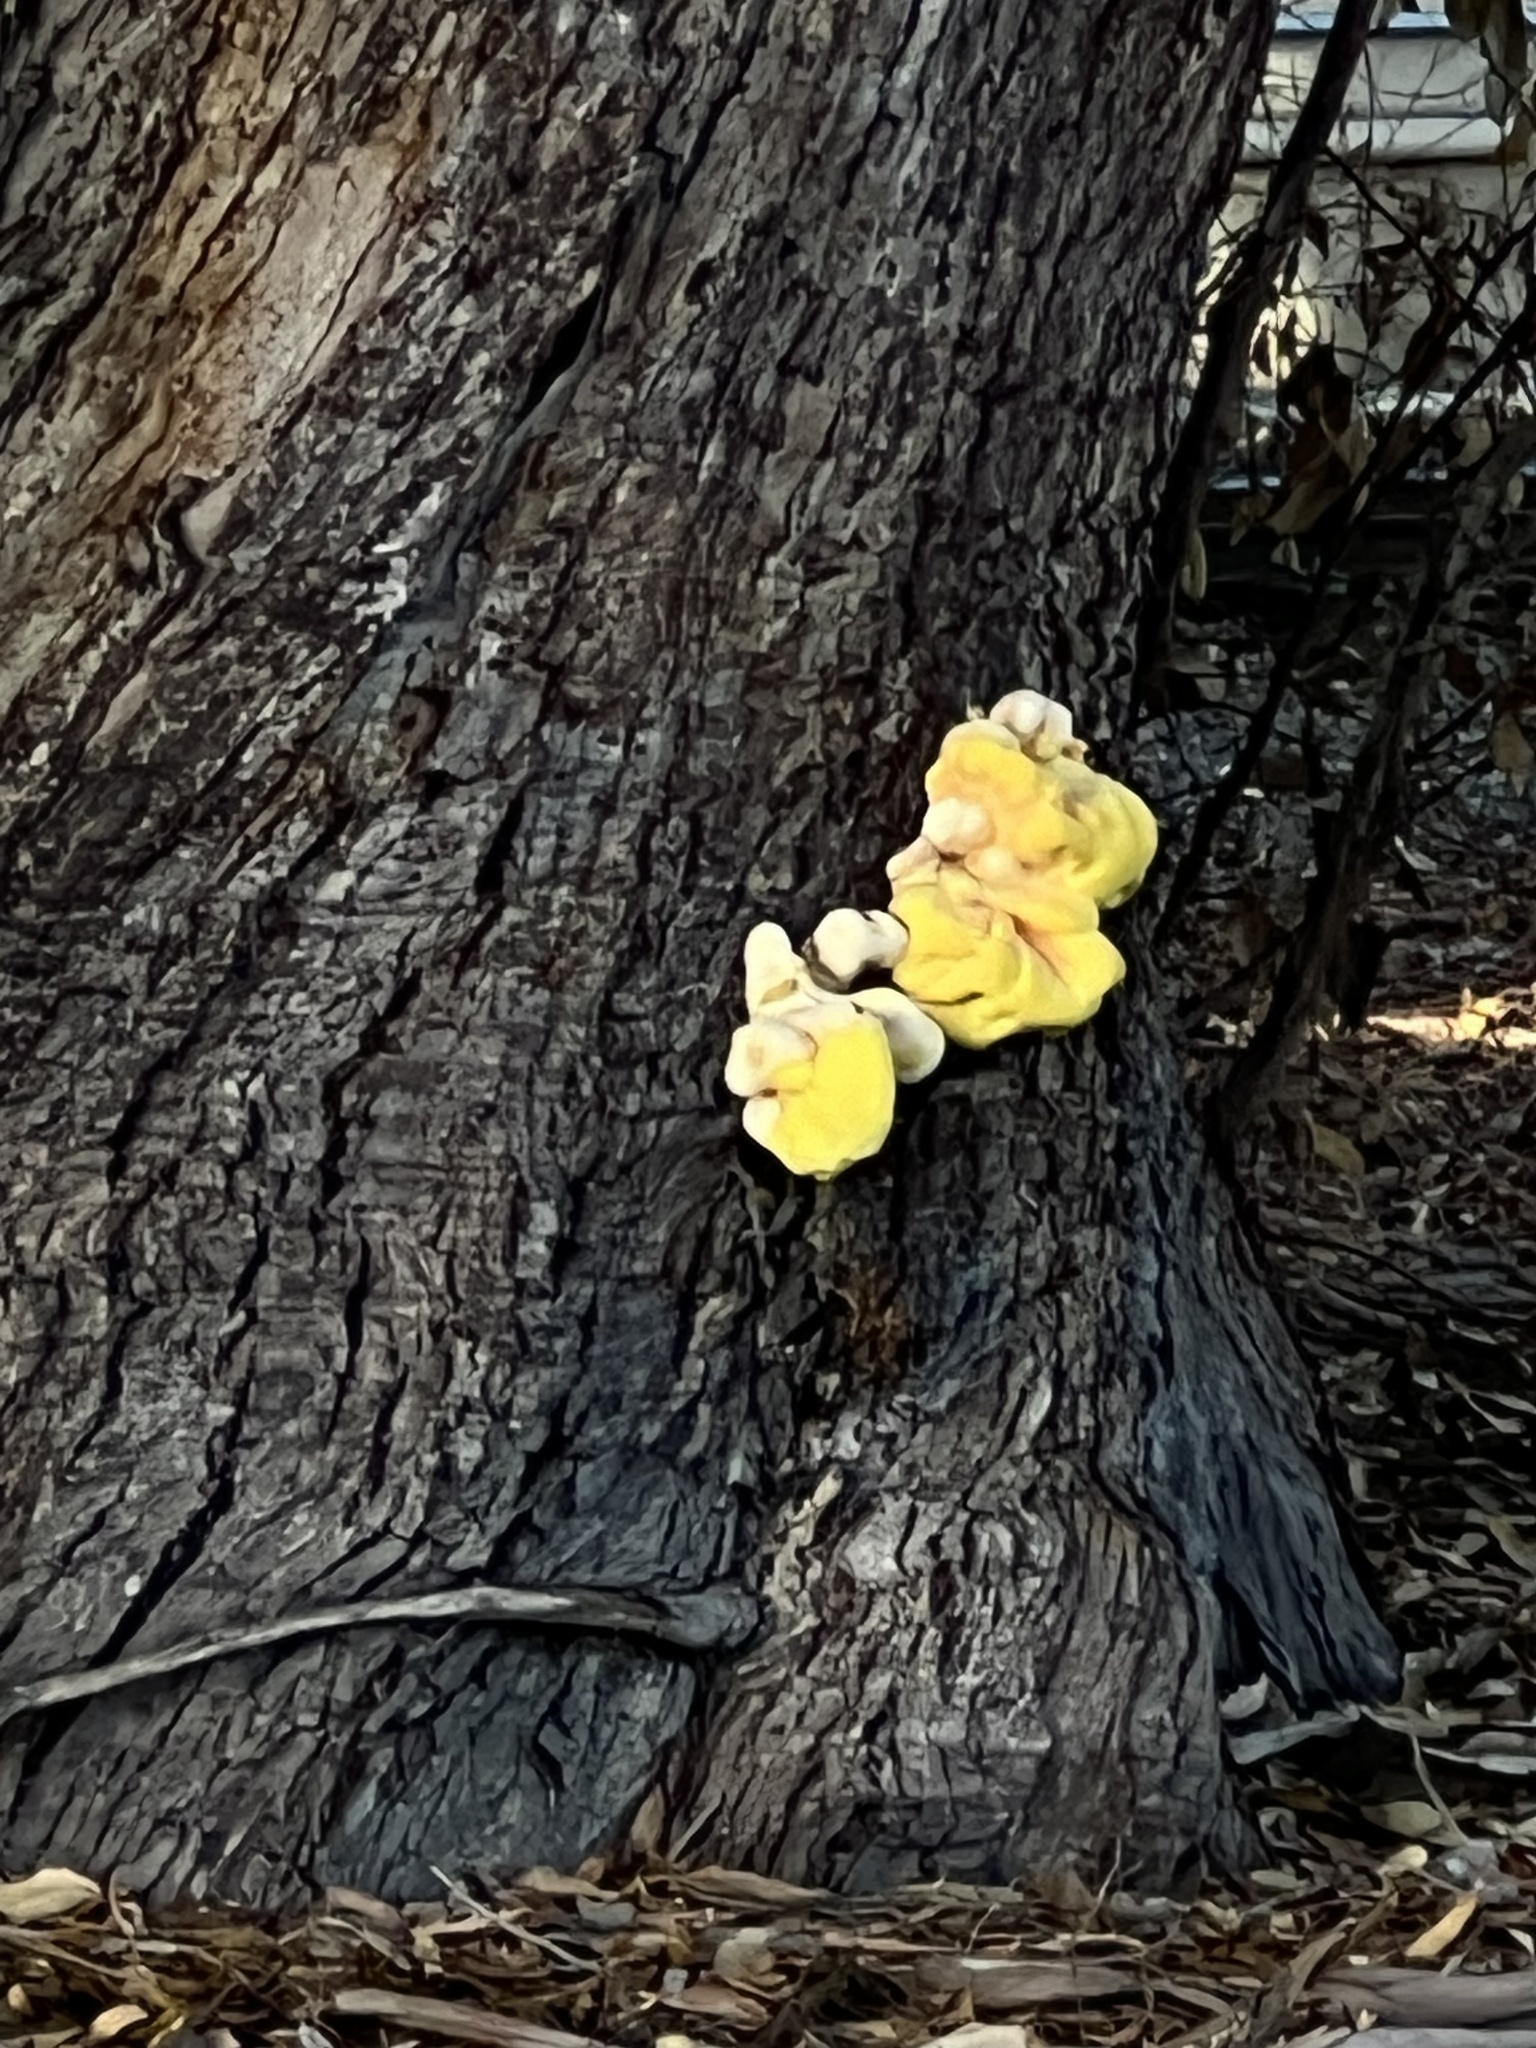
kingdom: Fungi
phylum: Basidiomycota
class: Agaricomycetes
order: Polyporales
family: Laetiporaceae
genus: Laetiporus
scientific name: Laetiporus gilbertsonii
